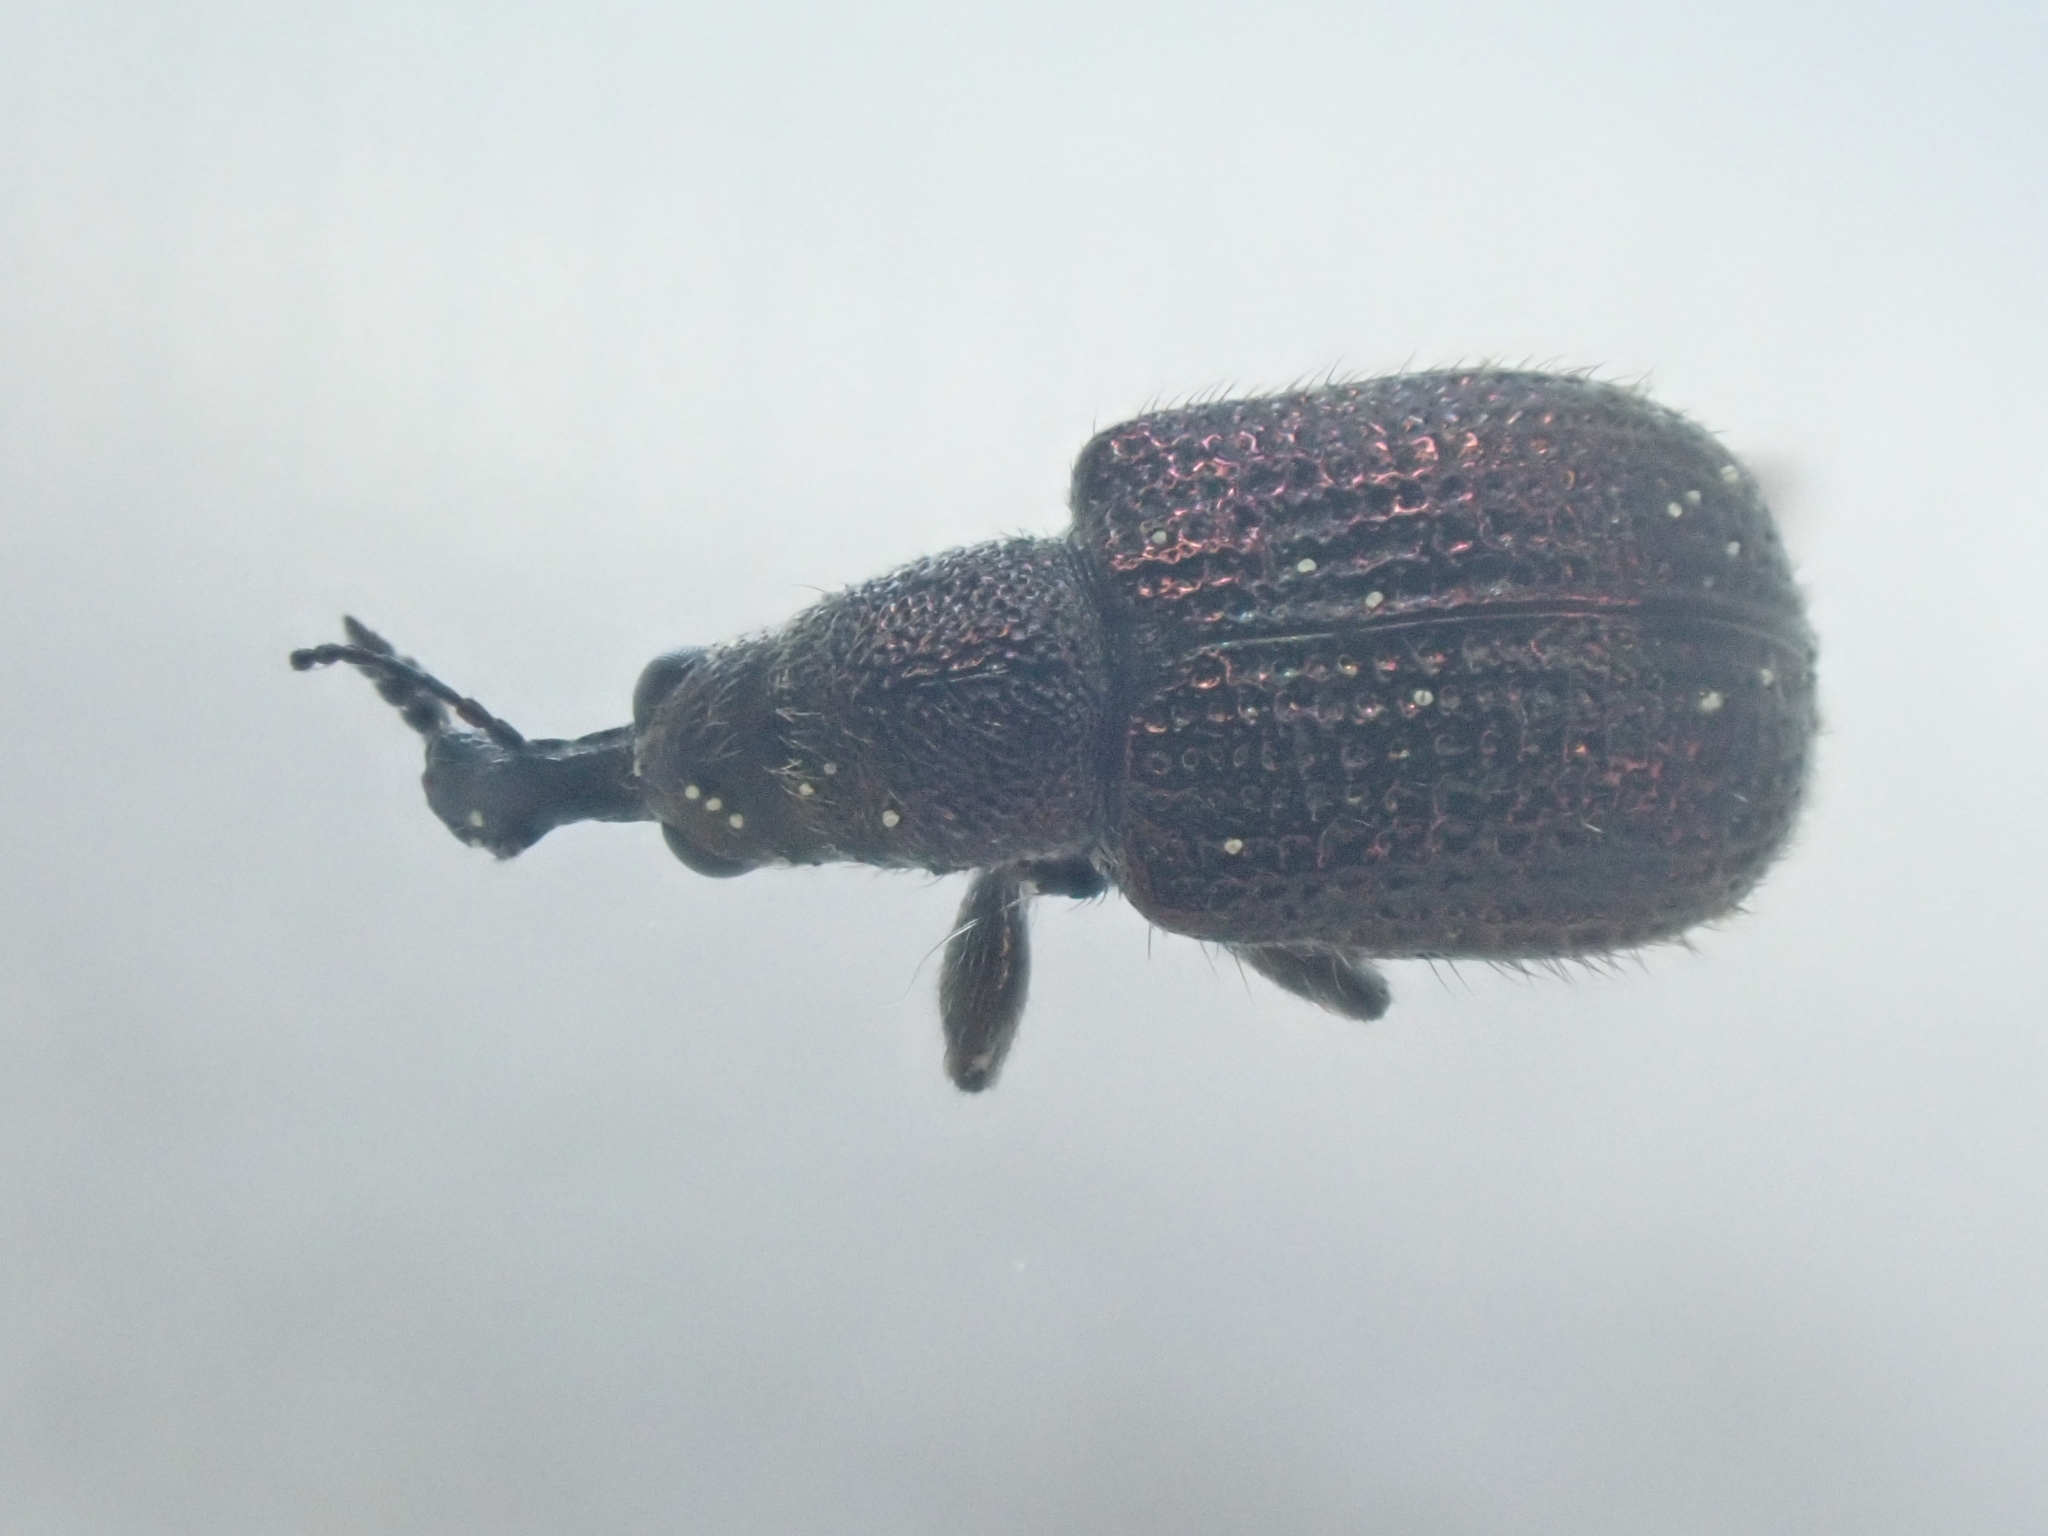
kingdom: Animalia
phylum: Arthropoda
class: Insecta
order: Coleoptera
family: Attelabidae
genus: Involvulus
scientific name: Involvulus cupreus
